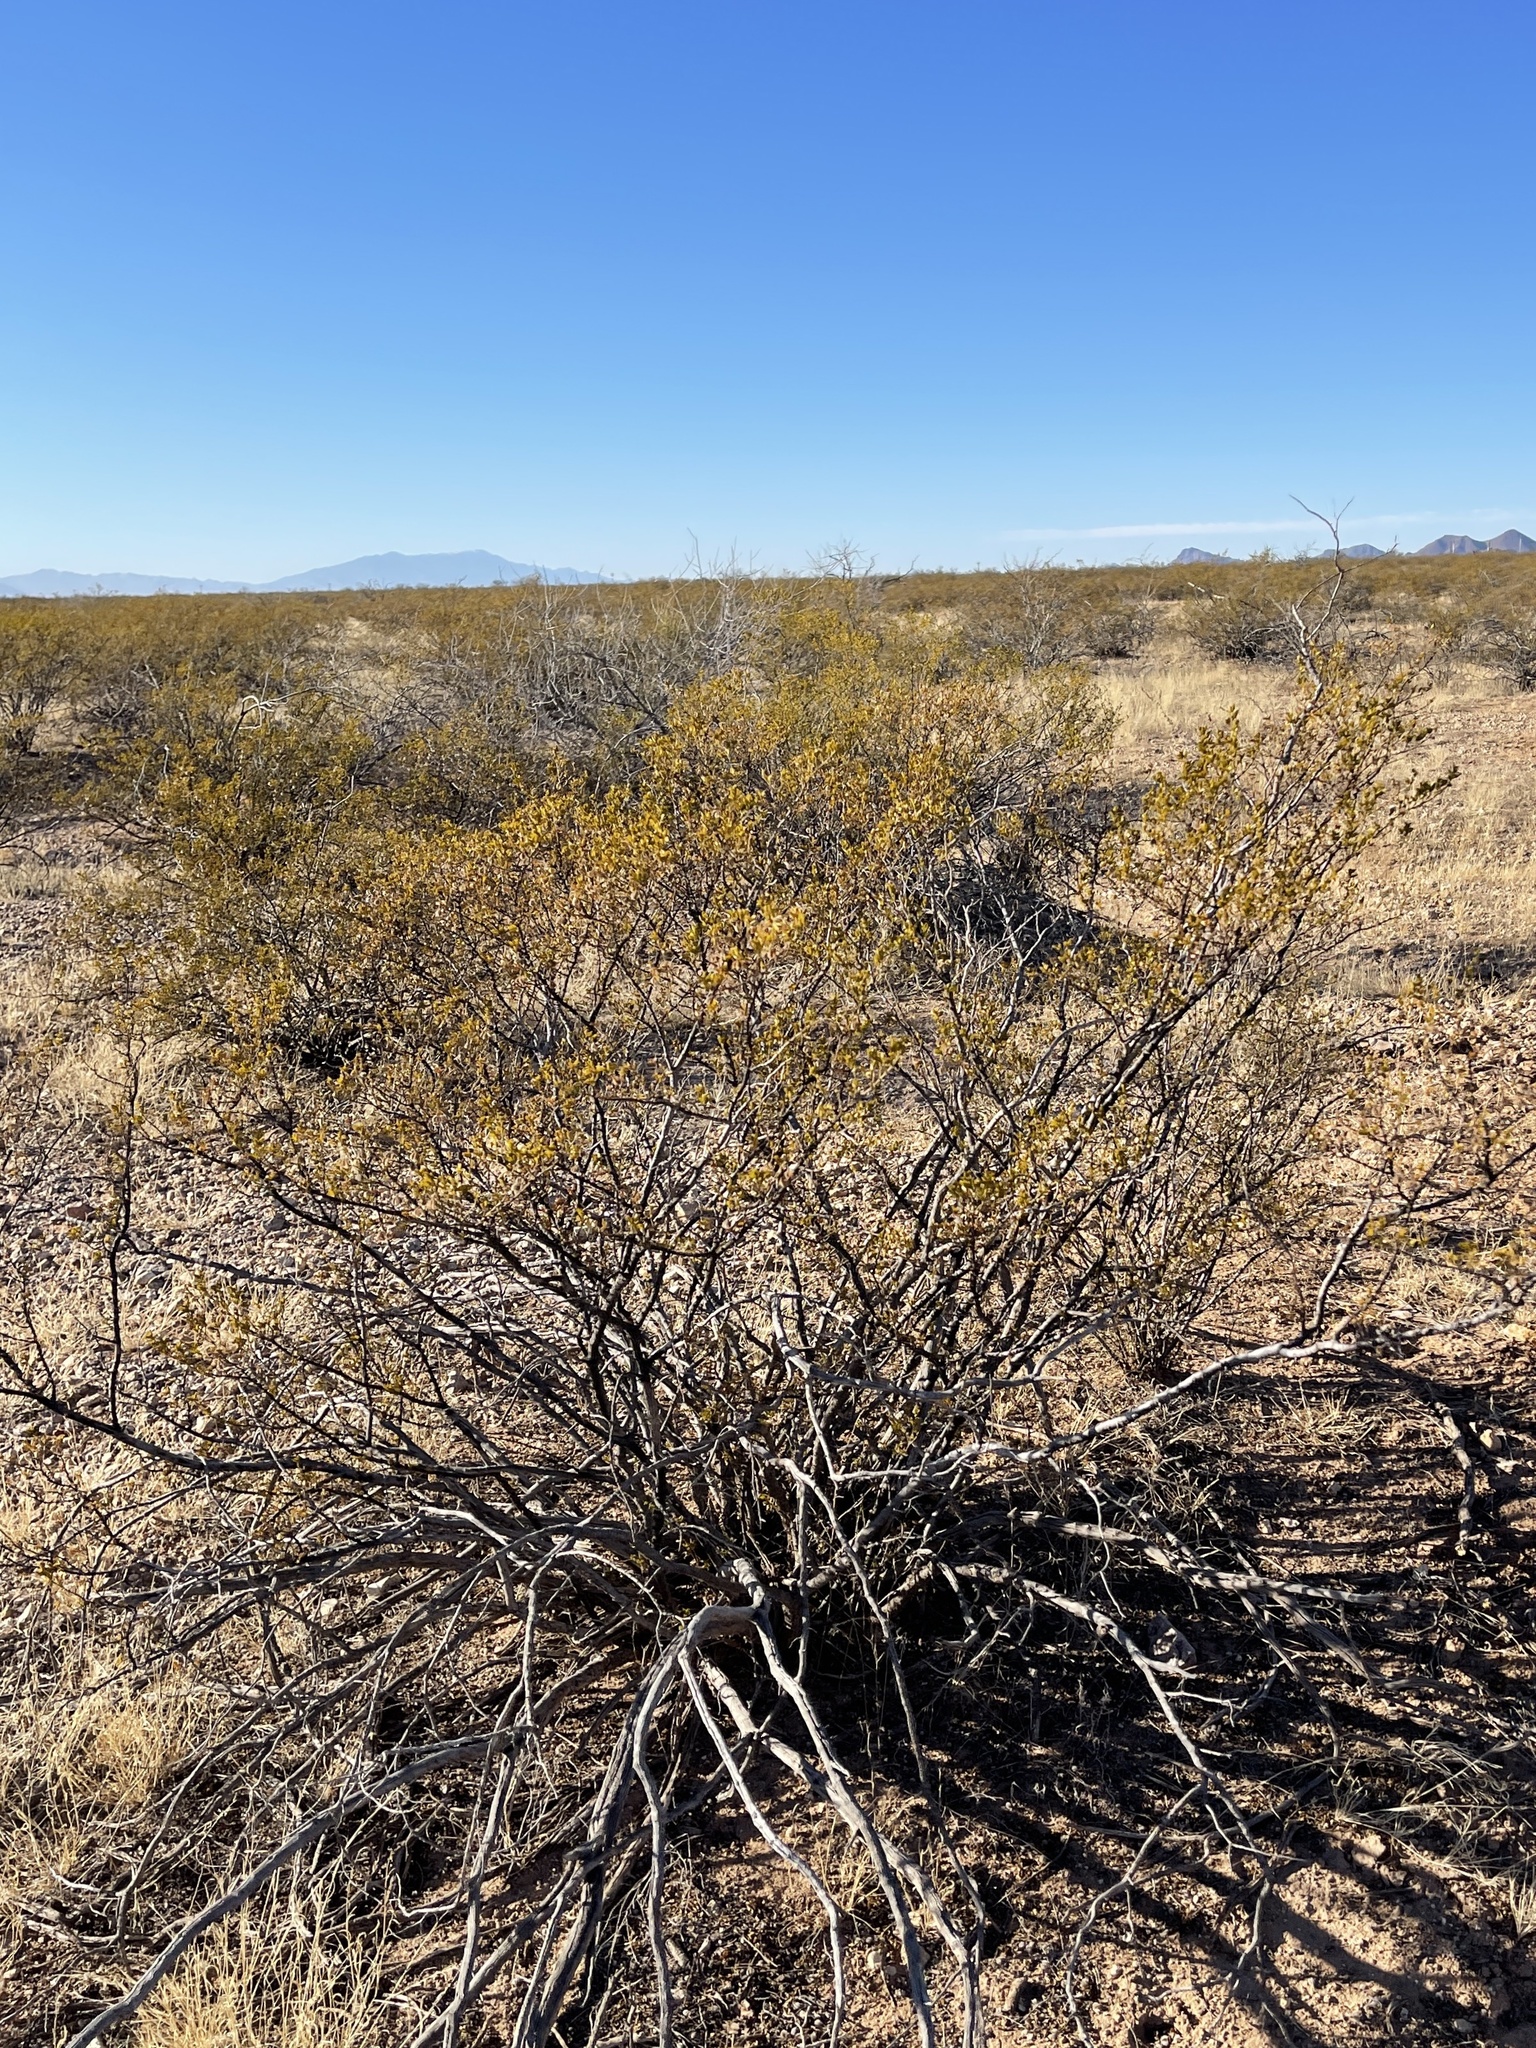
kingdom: Plantae
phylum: Tracheophyta
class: Magnoliopsida
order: Zygophyllales
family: Zygophyllaceae
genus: Larrea
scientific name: Larrea tridentata
